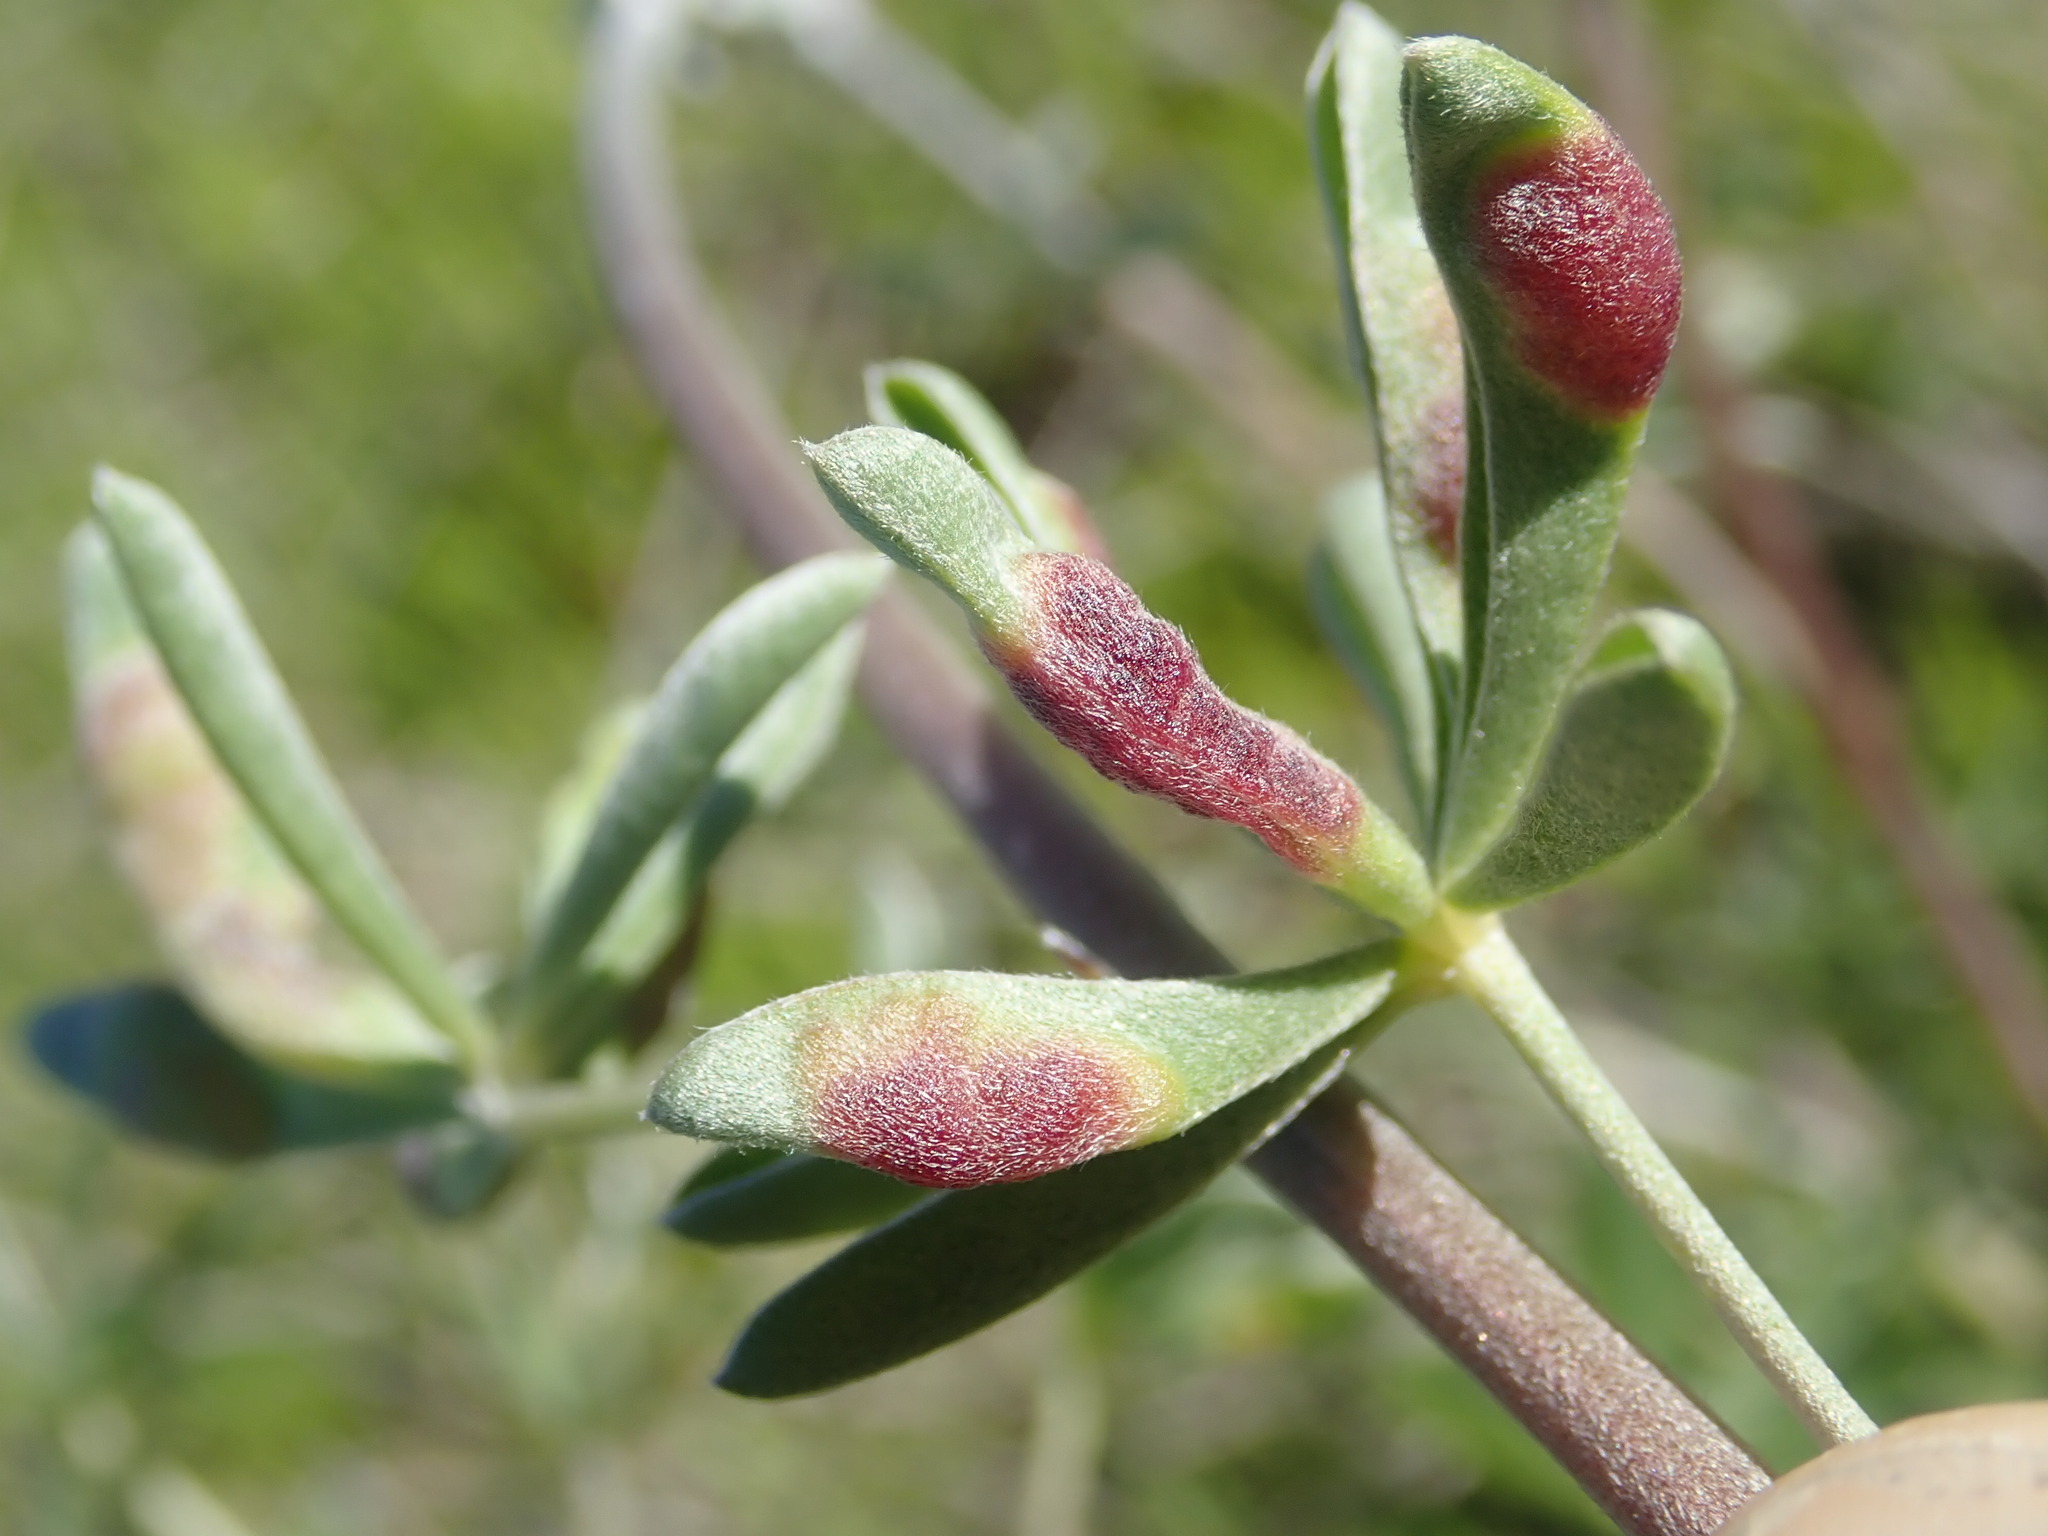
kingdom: Animalia
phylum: Arthropoda
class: Insecta
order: Diptera
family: Cecidomyiidae
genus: Dasineura
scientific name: Dasineura lupinorum
